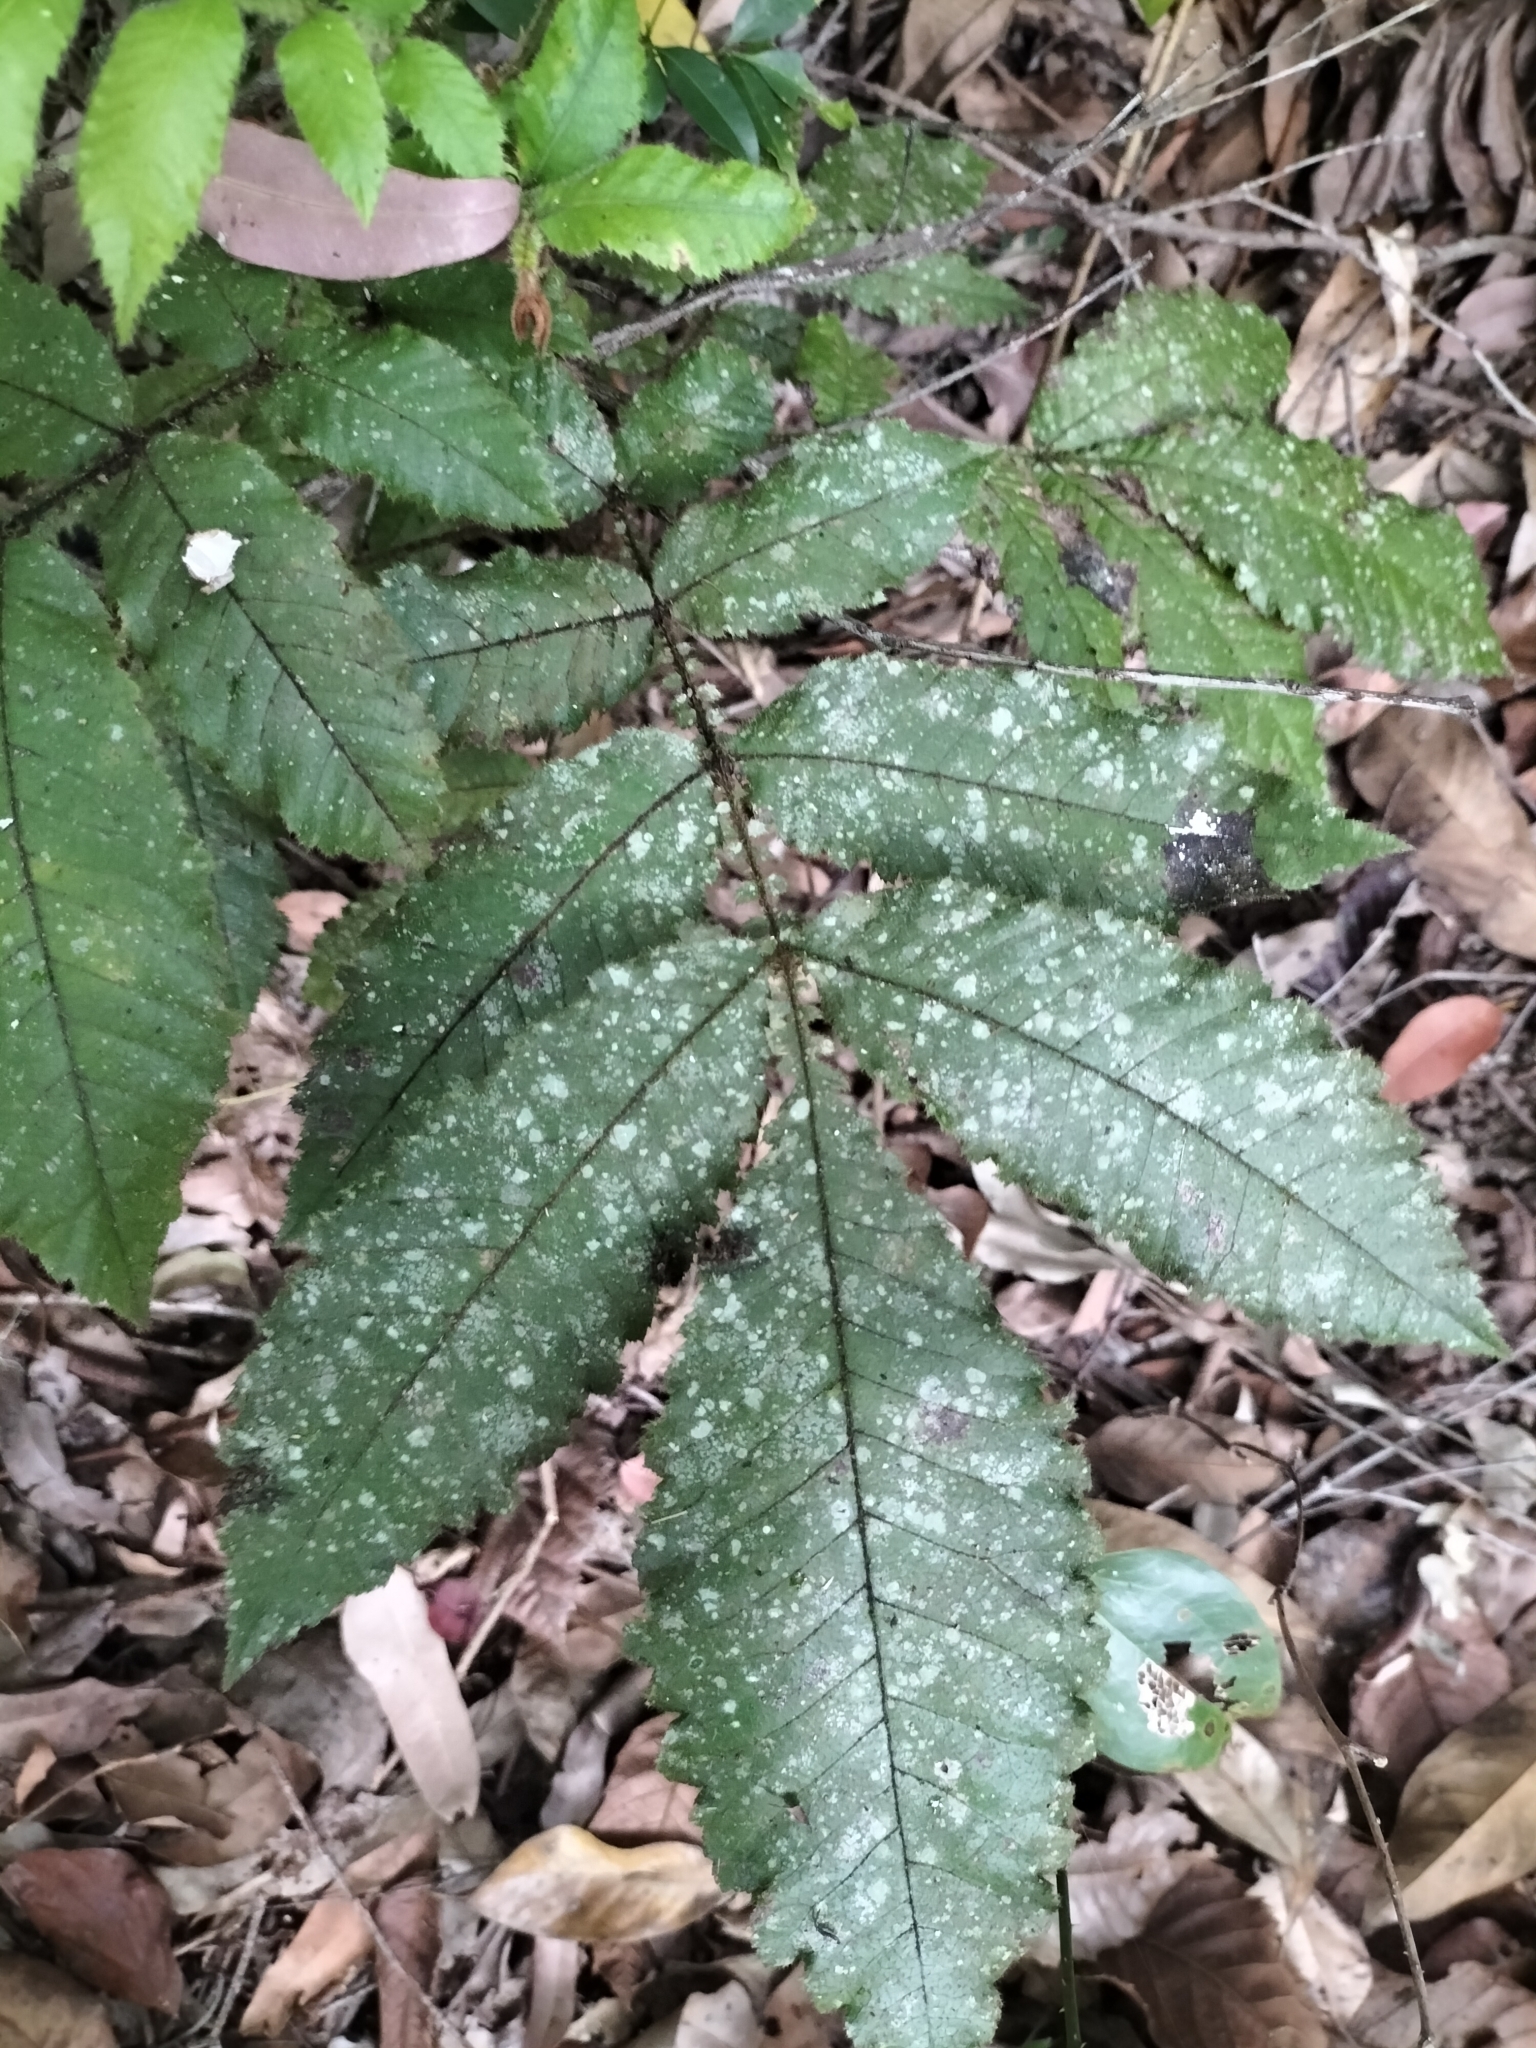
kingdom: Plantae
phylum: Tracheophyta
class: Magnoliopsida
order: Oxalidales
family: Cunoniaceae
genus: Davidsonia
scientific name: Davidsonia pruriens
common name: Do-rog
